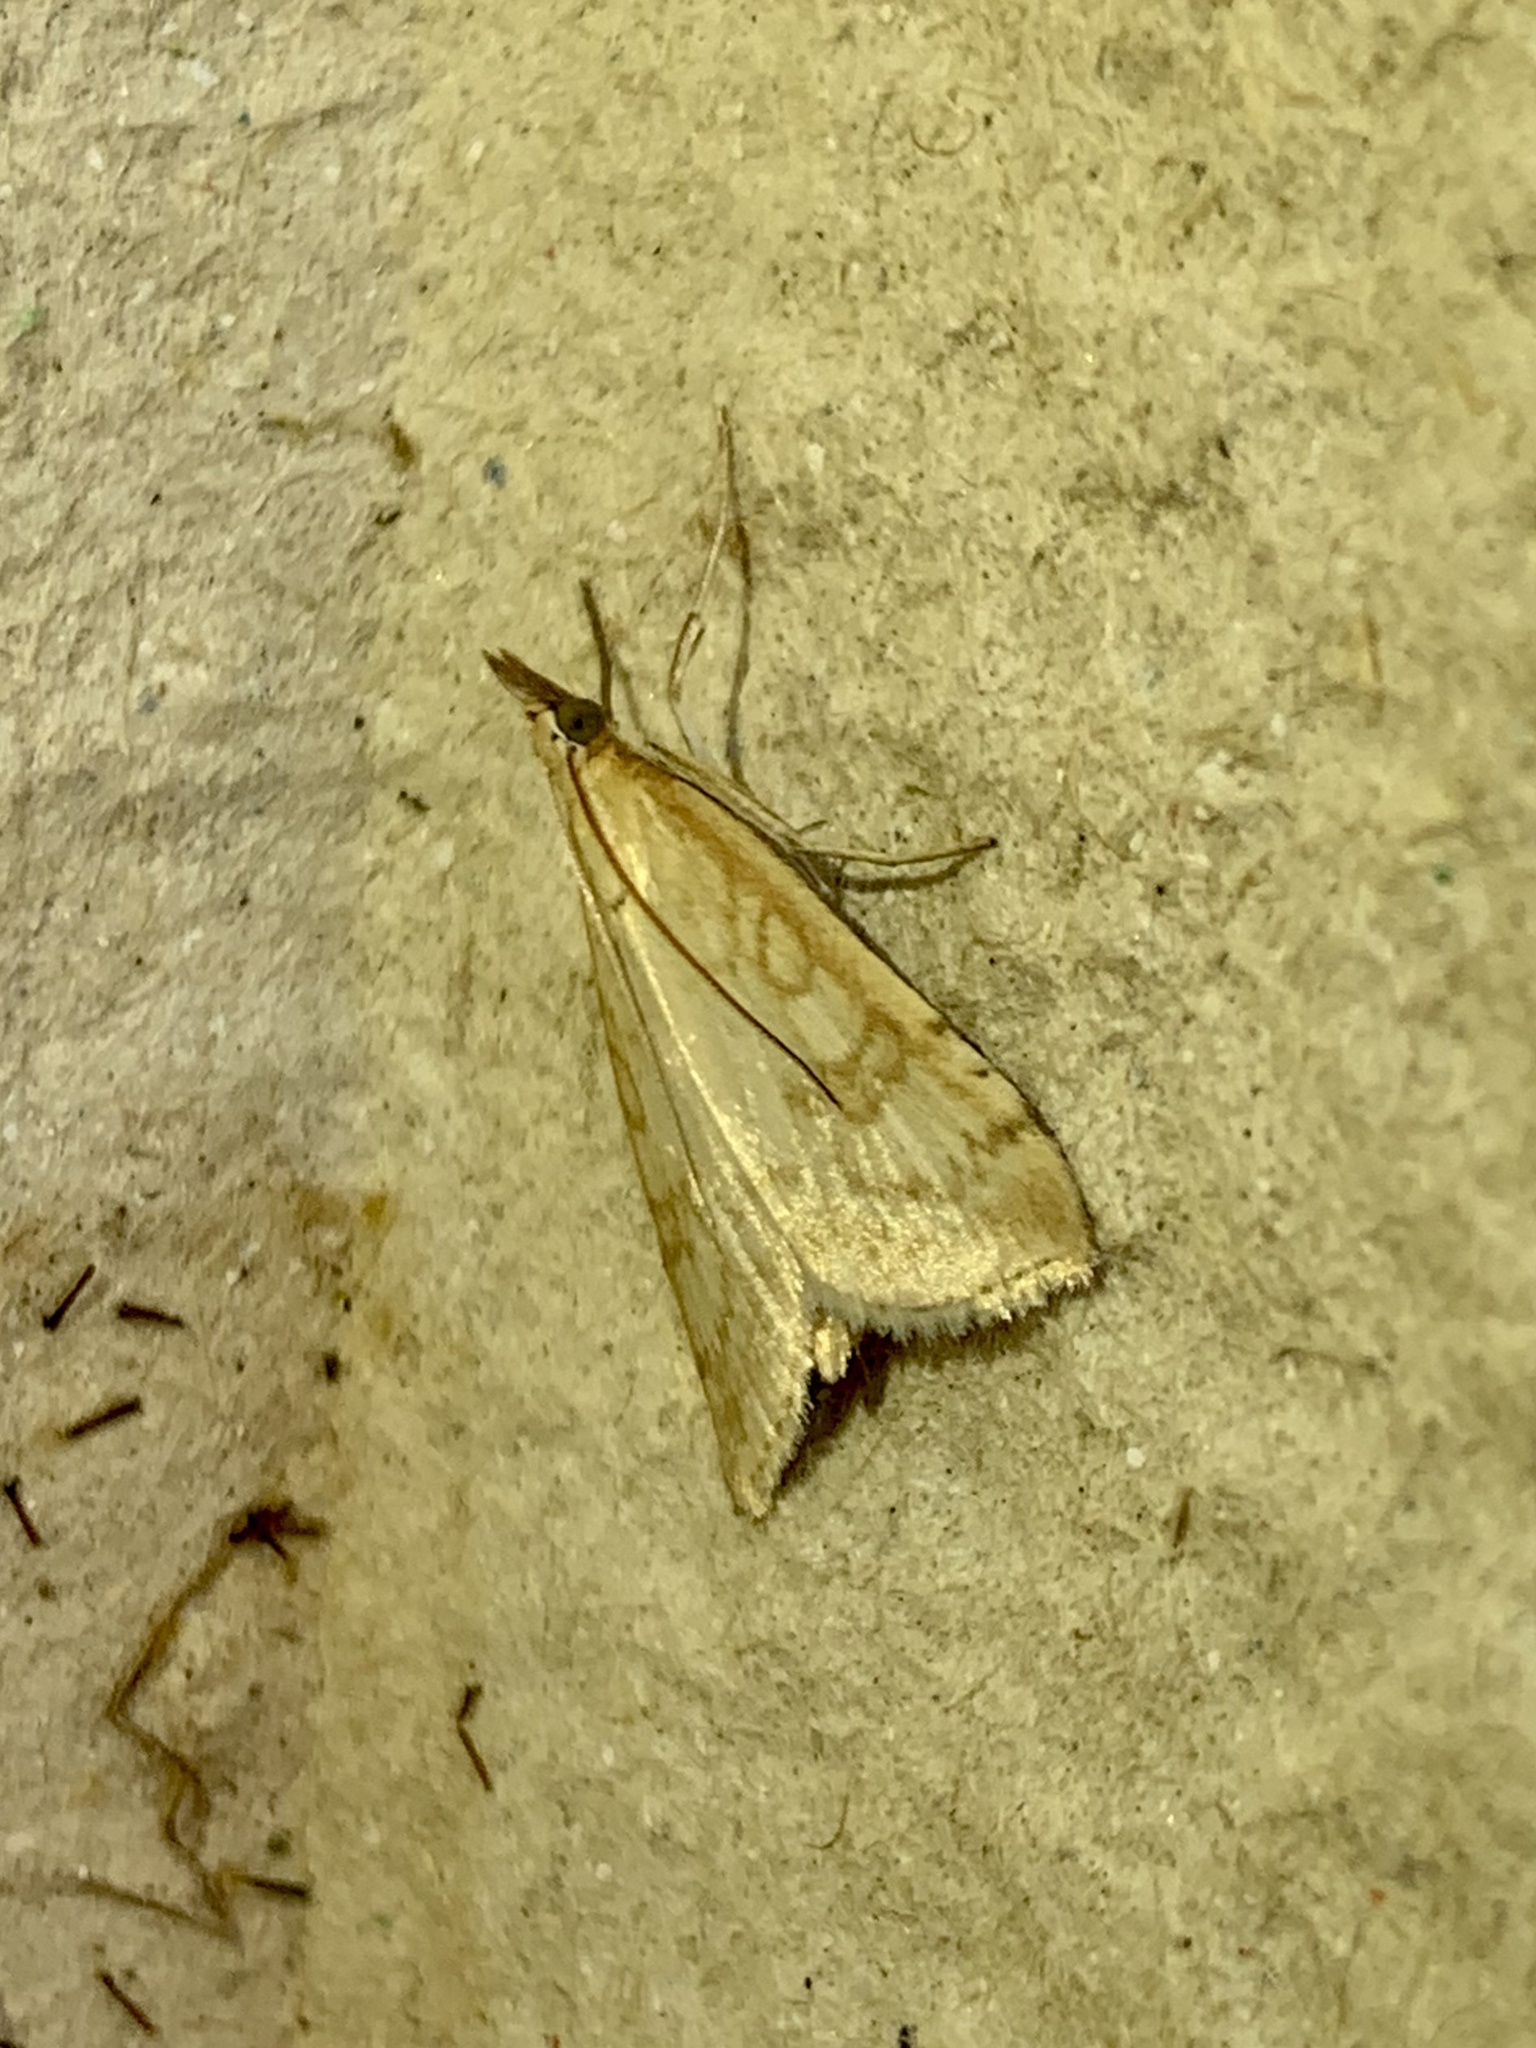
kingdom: Animalia
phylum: Arthropoda
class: Insecta
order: Lepidoptera
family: Crambidae
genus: Udea
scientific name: Udea lutealis
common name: Pale straw pearl
